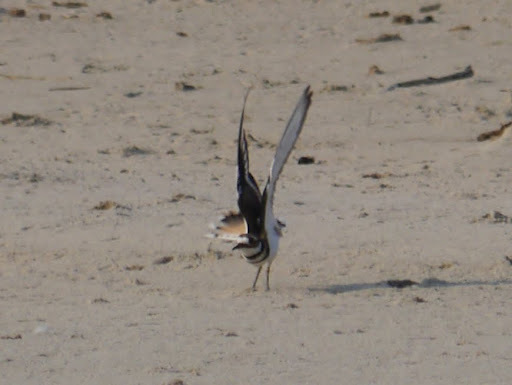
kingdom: Animalia
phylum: Chordata
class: Aves
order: Charadriiformes
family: Charadriidae
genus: Charadrius
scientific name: Charadrius vociferus
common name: Killdeer
